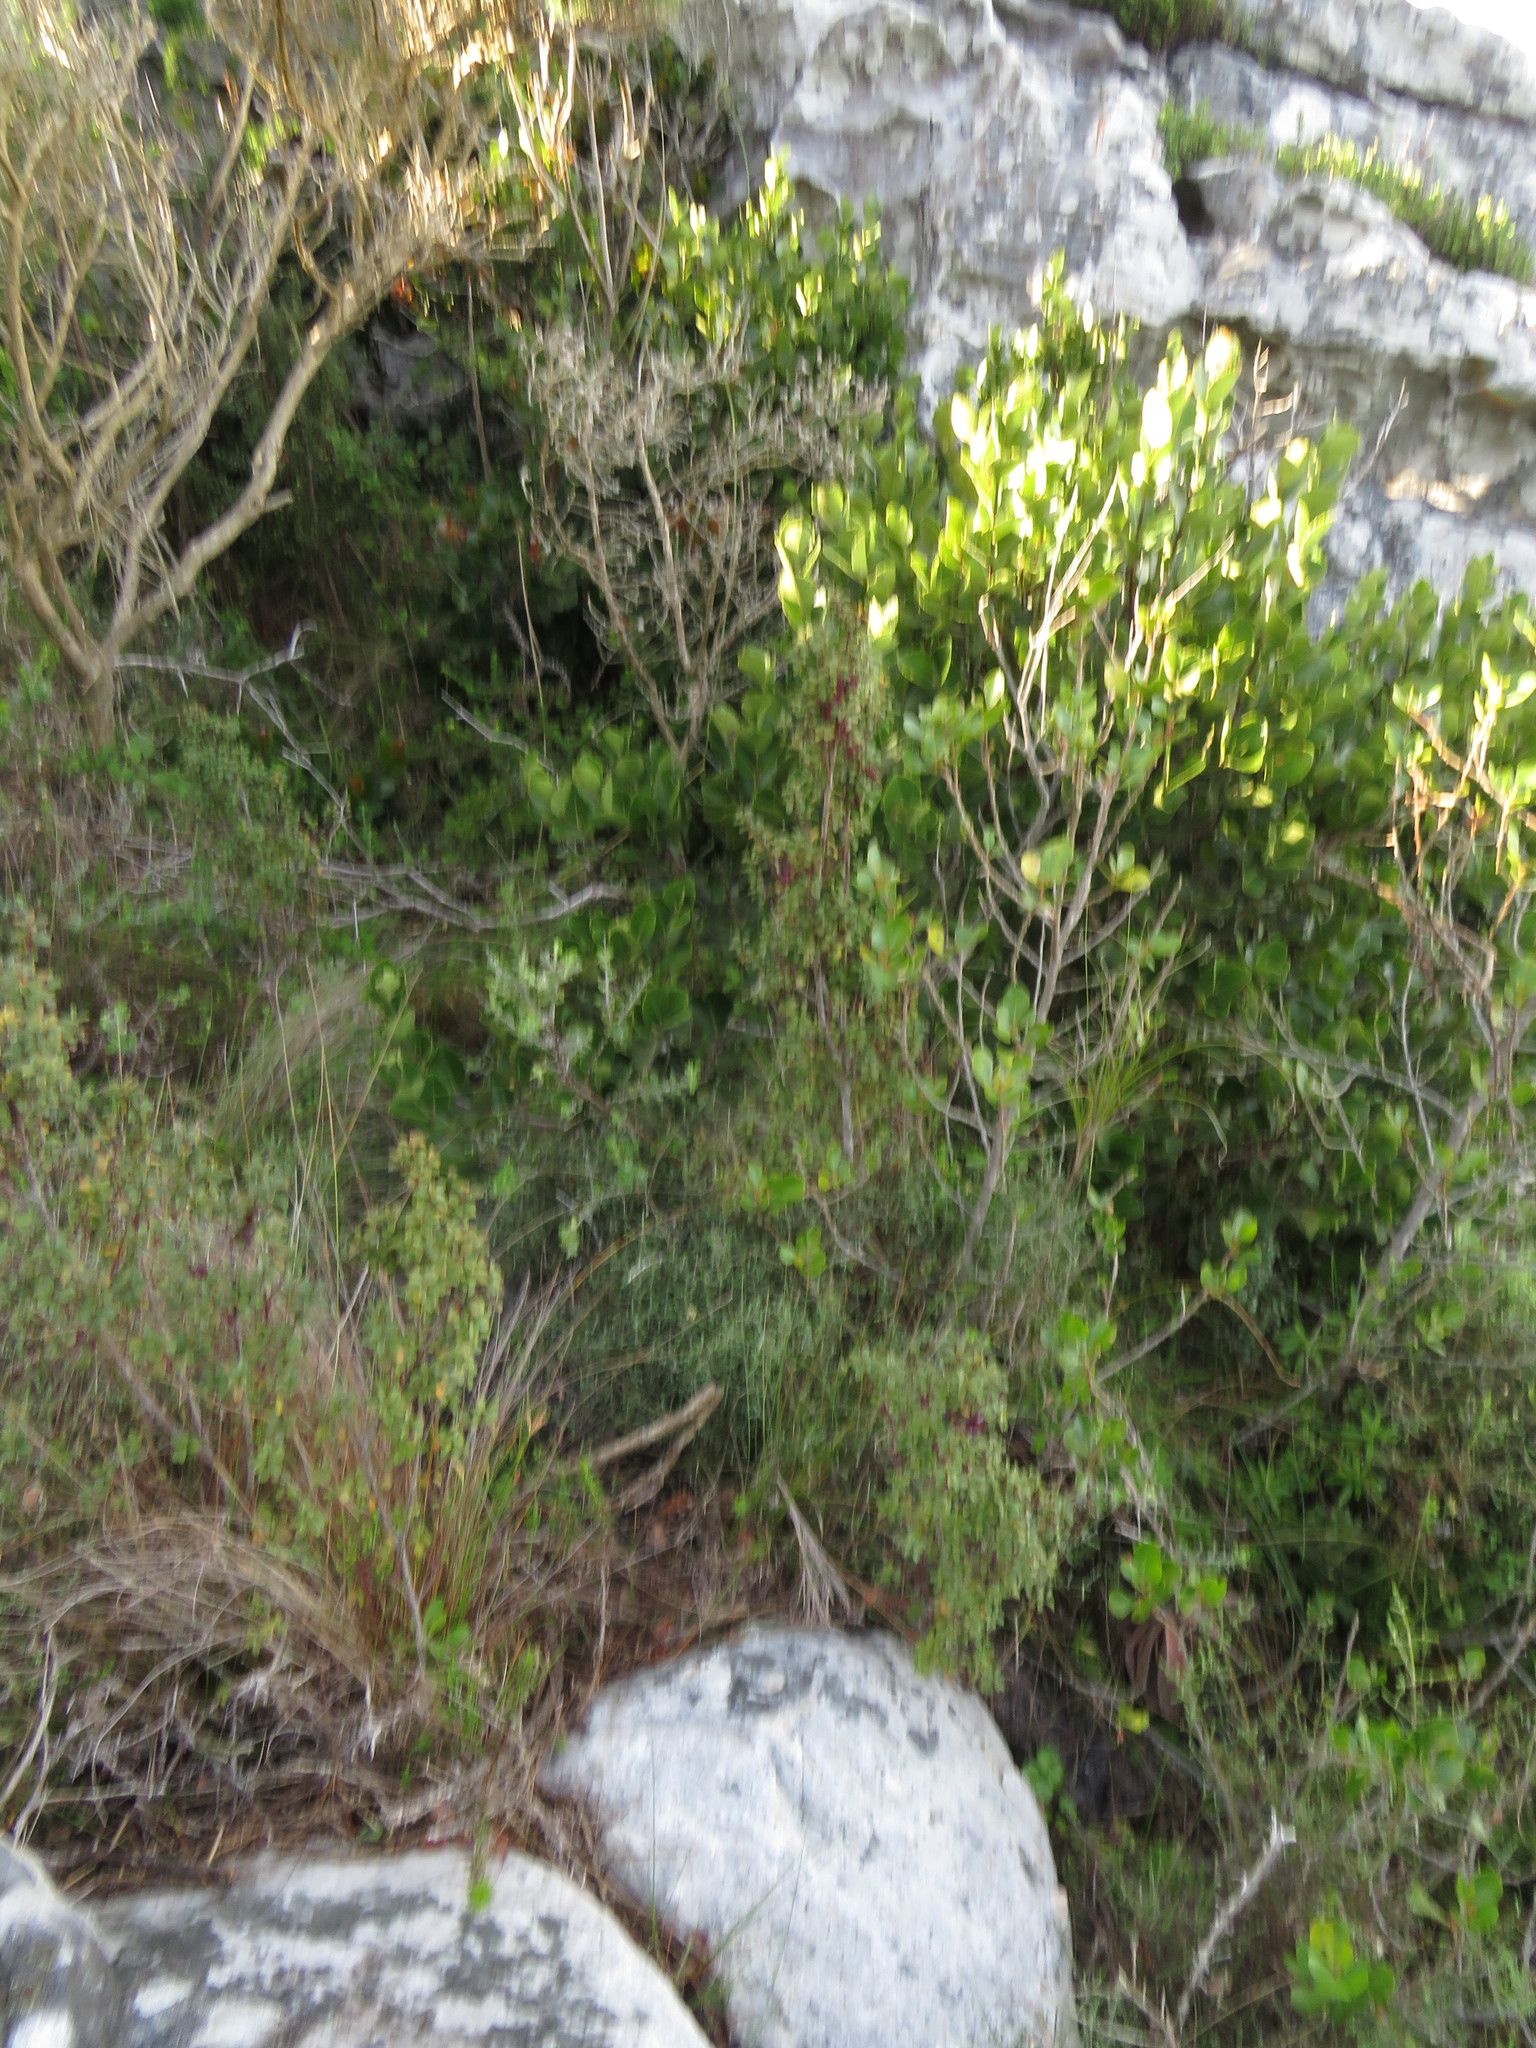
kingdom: Plantae
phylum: Tracheophyta
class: Magnoliopsida
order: Ericales
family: Primulaceae
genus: Myrsine
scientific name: Myrsine africana
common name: African-boxwood
